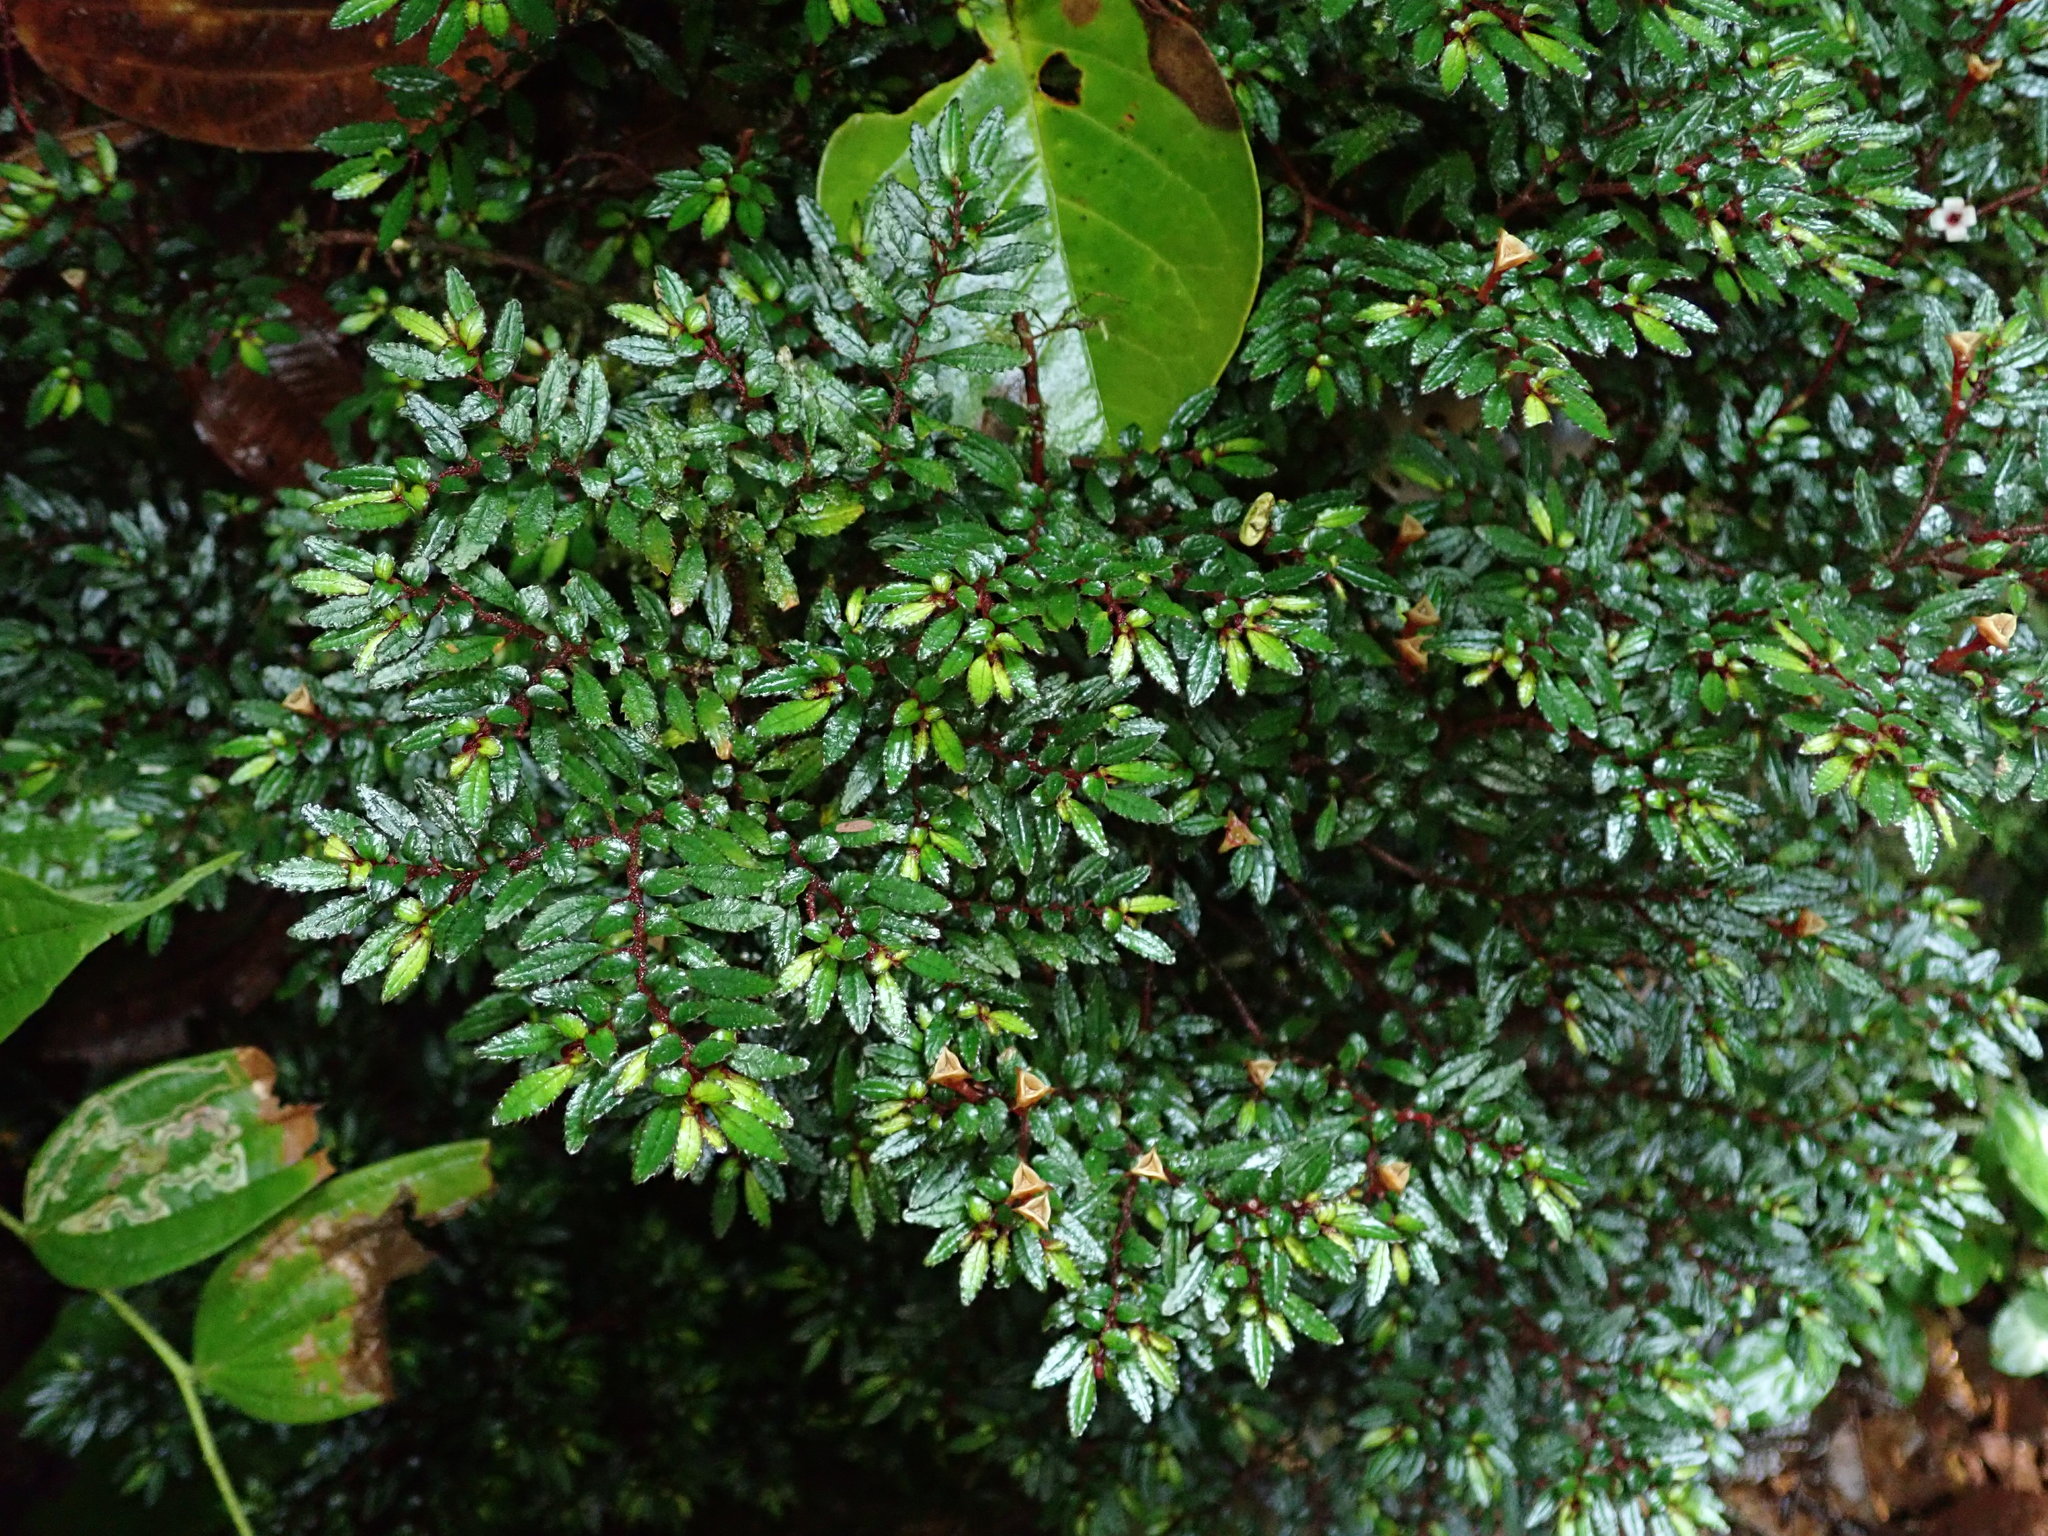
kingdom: Plantae
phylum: Tracheophyta
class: Magnoliopsida
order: Myrtales
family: Melastomataceae
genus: Triolena
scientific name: Triolena pileoides
